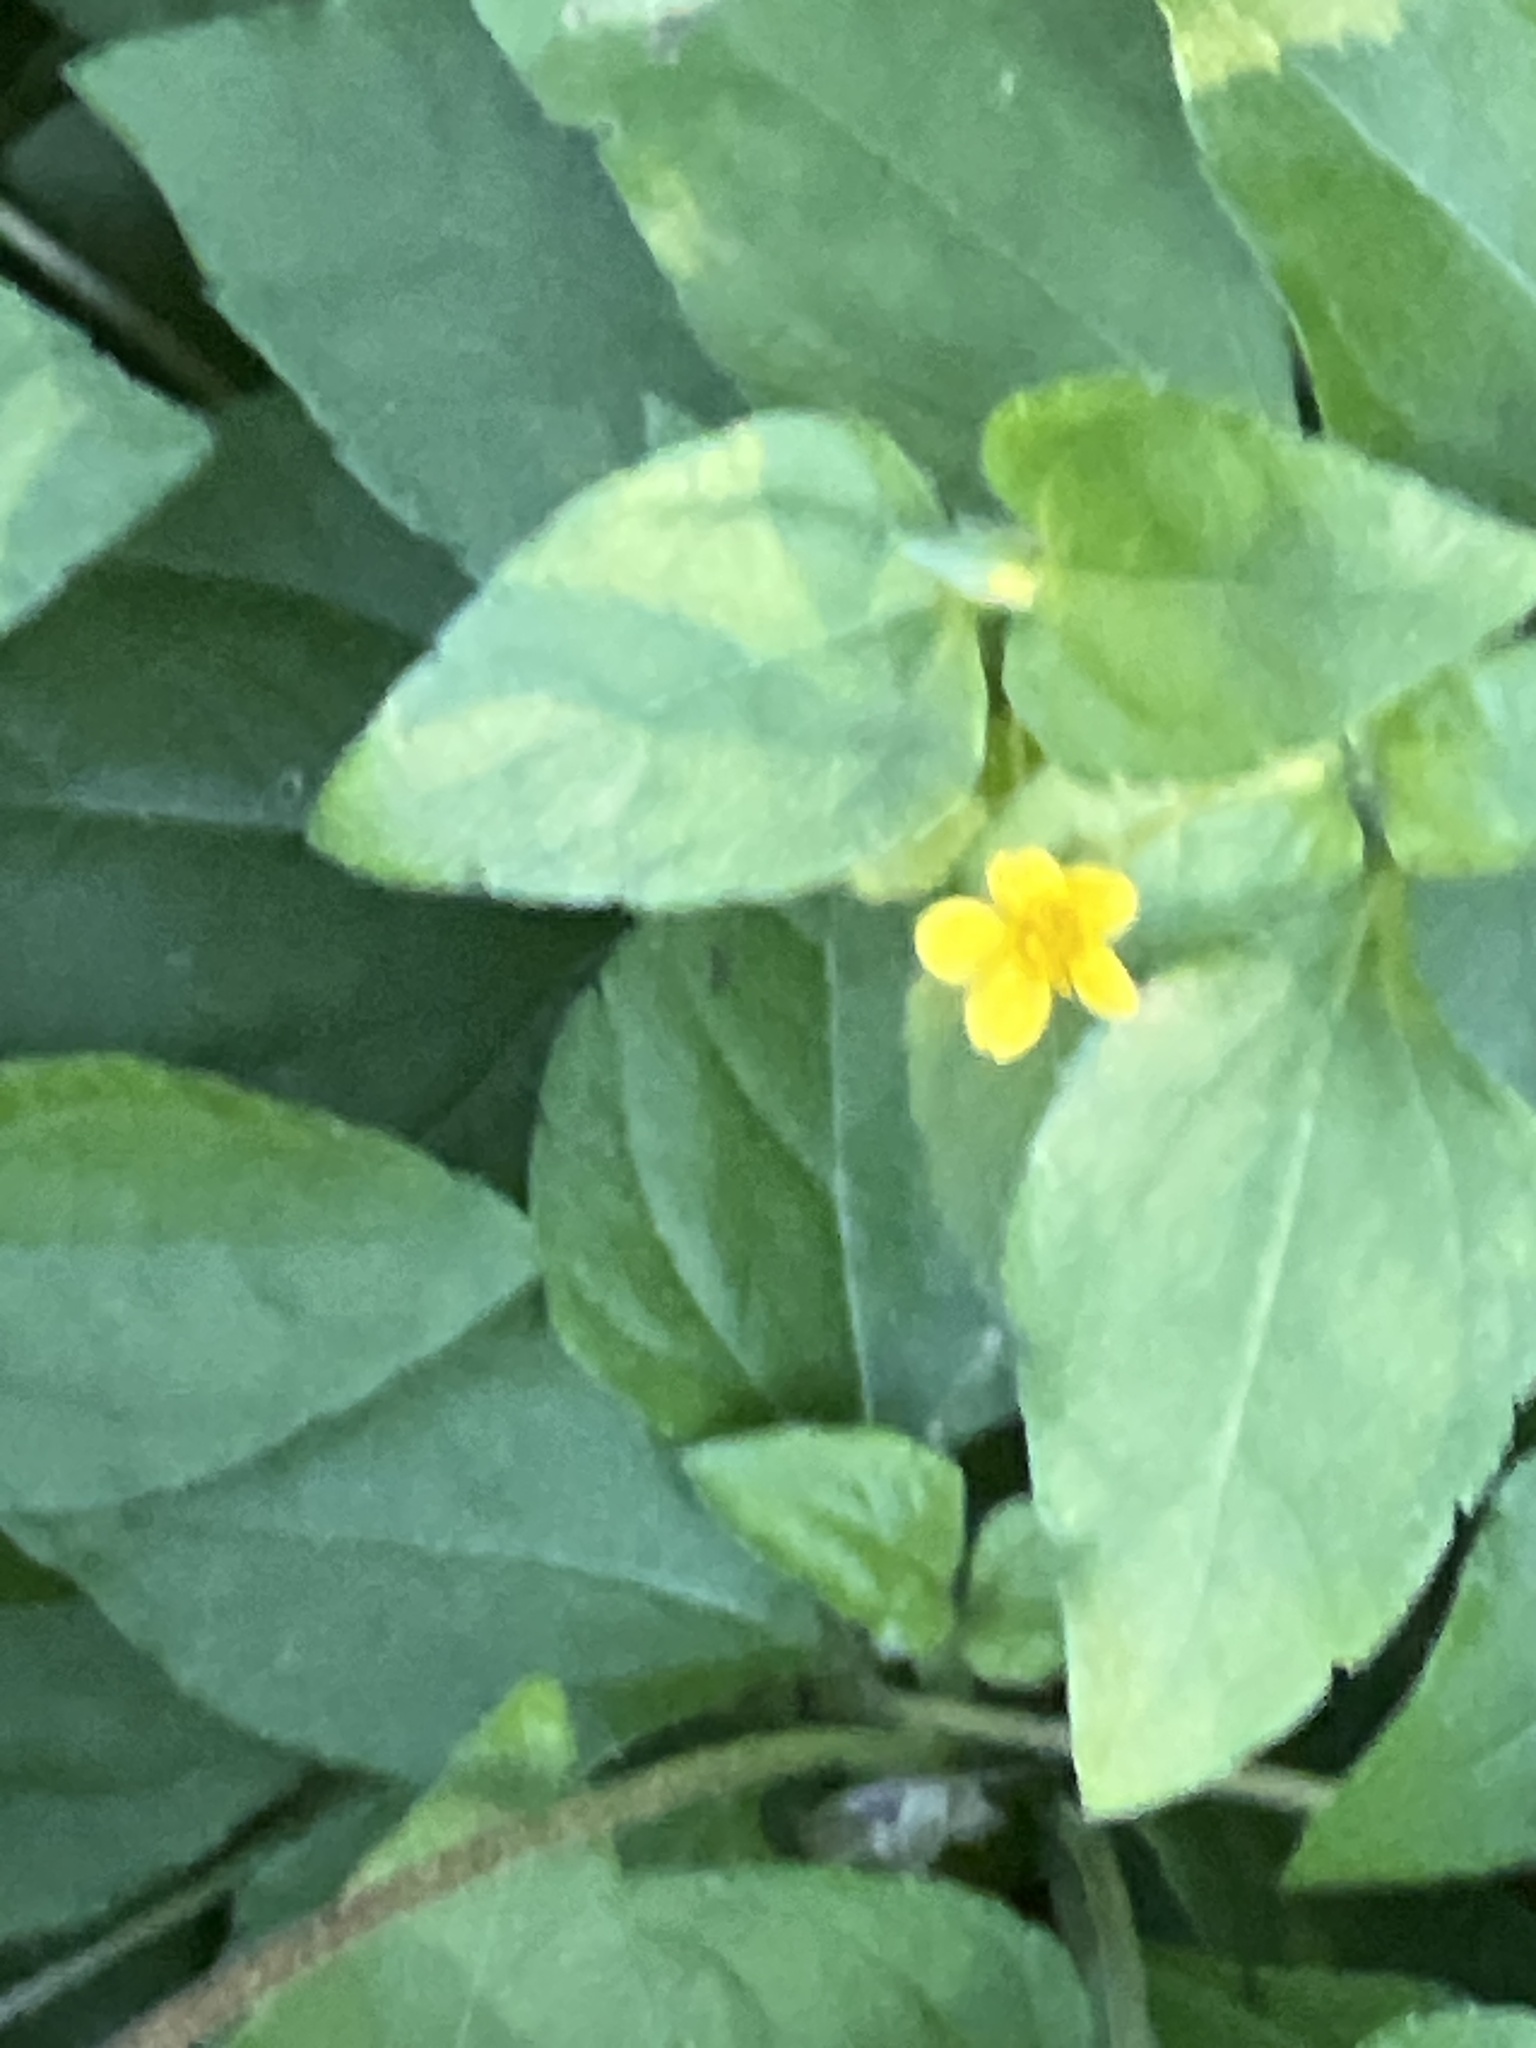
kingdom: Plantae
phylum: Tracheophyta
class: Magnoliopsida
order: Asterales
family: Asteraceae
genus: Calyptocarpus
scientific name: Calyptocarpus vialis
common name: Straggler daisy
